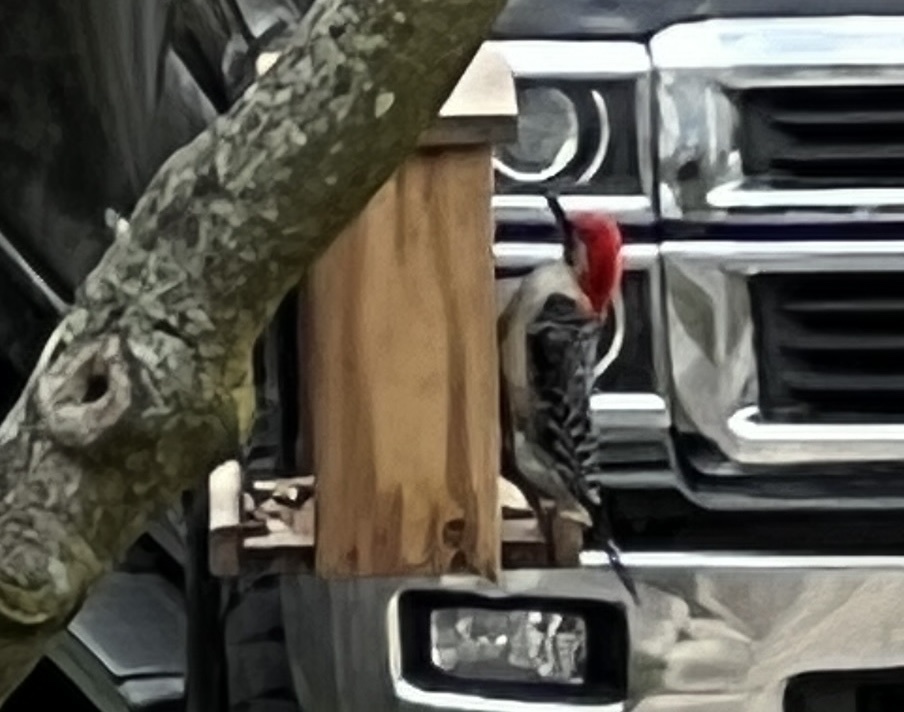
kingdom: Animalia
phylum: Chordata
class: Aves
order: Piciformes
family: Picidae
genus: Melanerpes
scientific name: Melanerpes carolinus
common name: Red-bellied woodpecker
